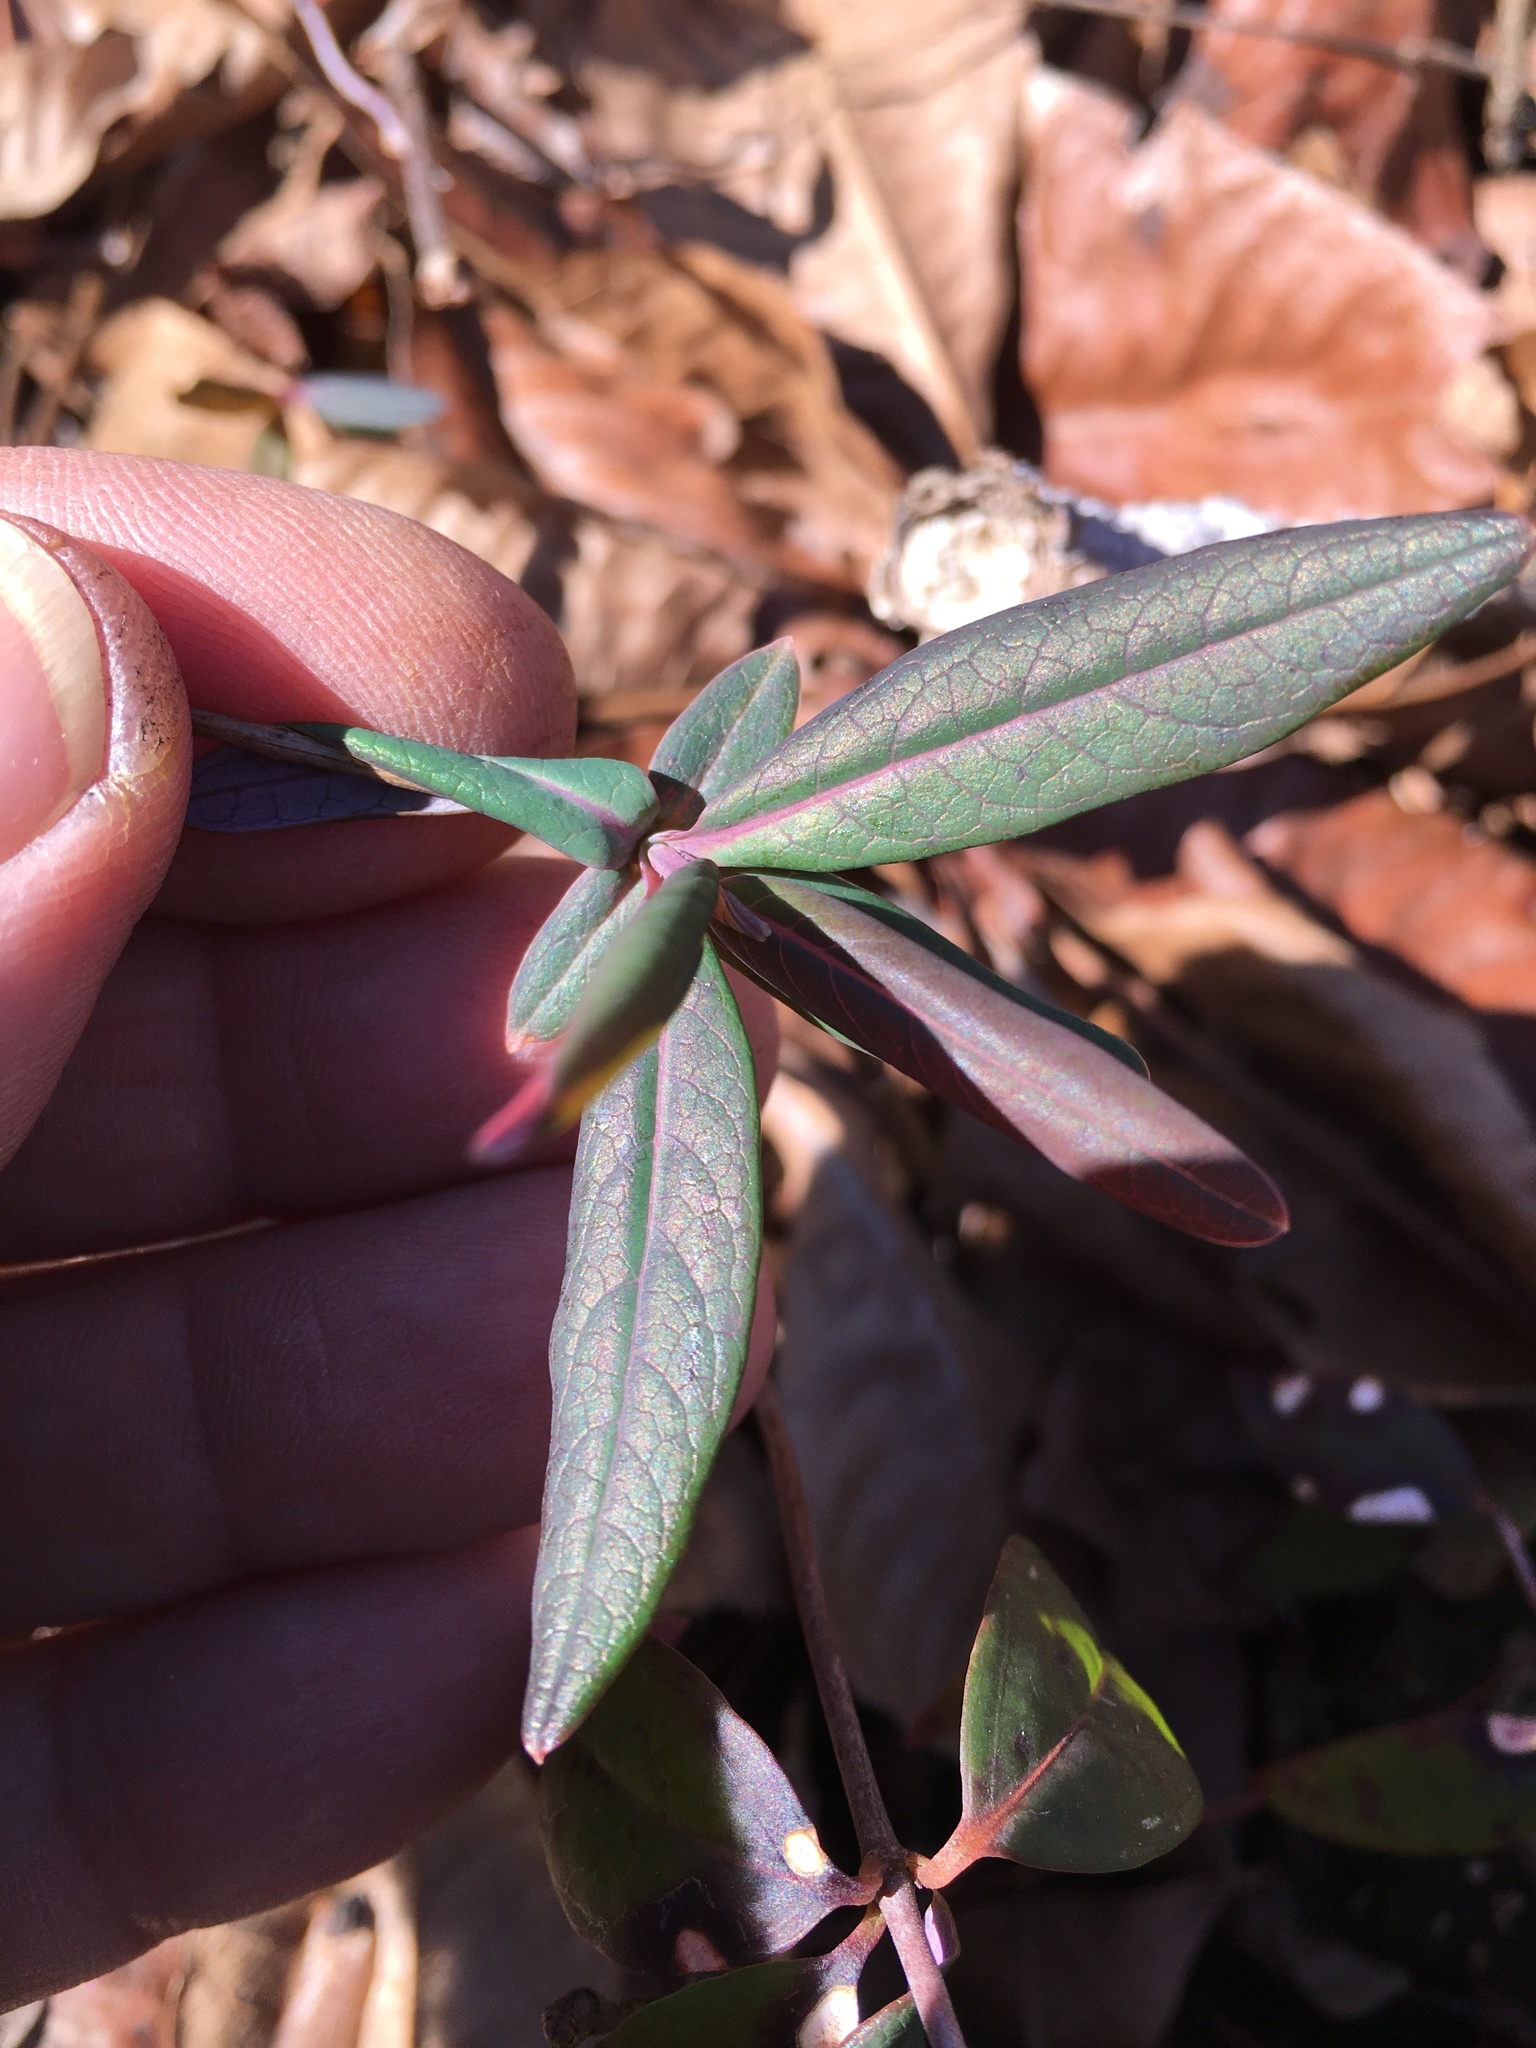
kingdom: Plantae
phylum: Tracheophyta
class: Magnoliopsida
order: Dipsacales
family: Caprifoliaceae
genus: Lonicera
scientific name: Lonicera sempervirens
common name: Coral honeysuckle
